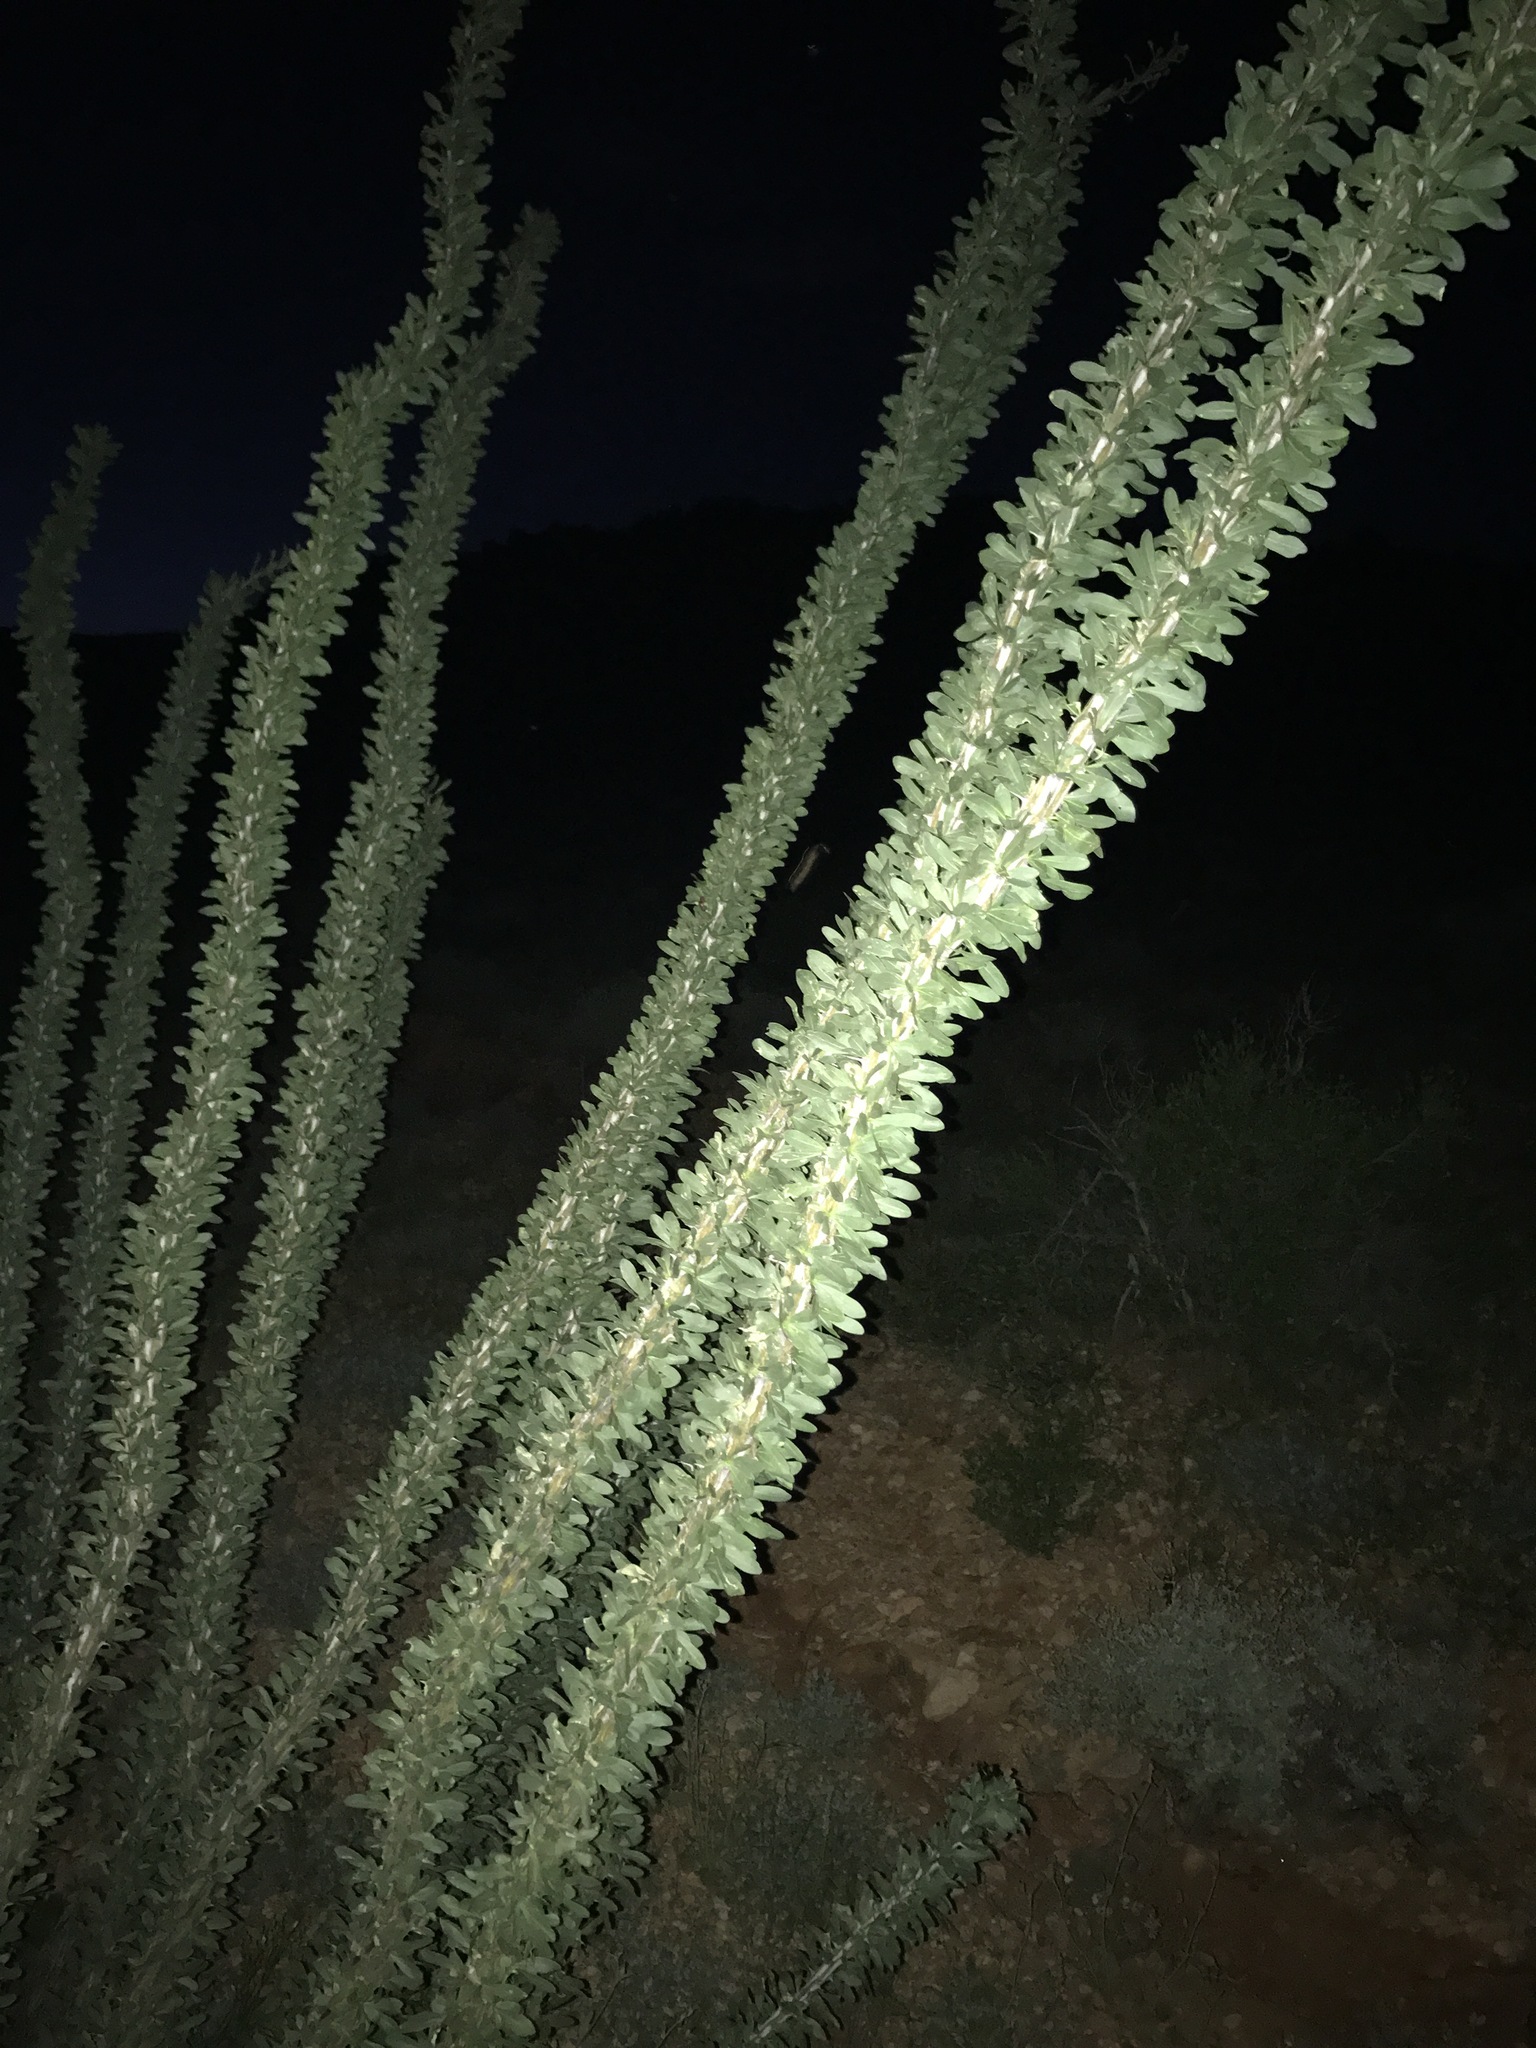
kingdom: Plantae
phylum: Tracheophyta
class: Magnoliopsida
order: Ericales
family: Fouquieriaceae
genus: Fouquieria
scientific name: Fouquieria splendens
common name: Vine-cactus
